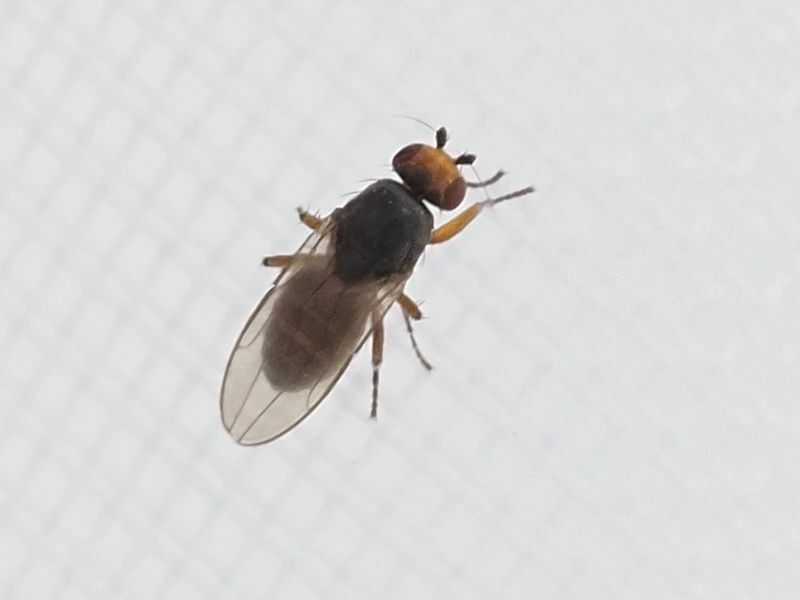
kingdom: Animalia
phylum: Arthropoda
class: Insecta
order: Diptera
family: Sphaeroceridae
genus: Spelobia
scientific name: Spelobia ochripes
